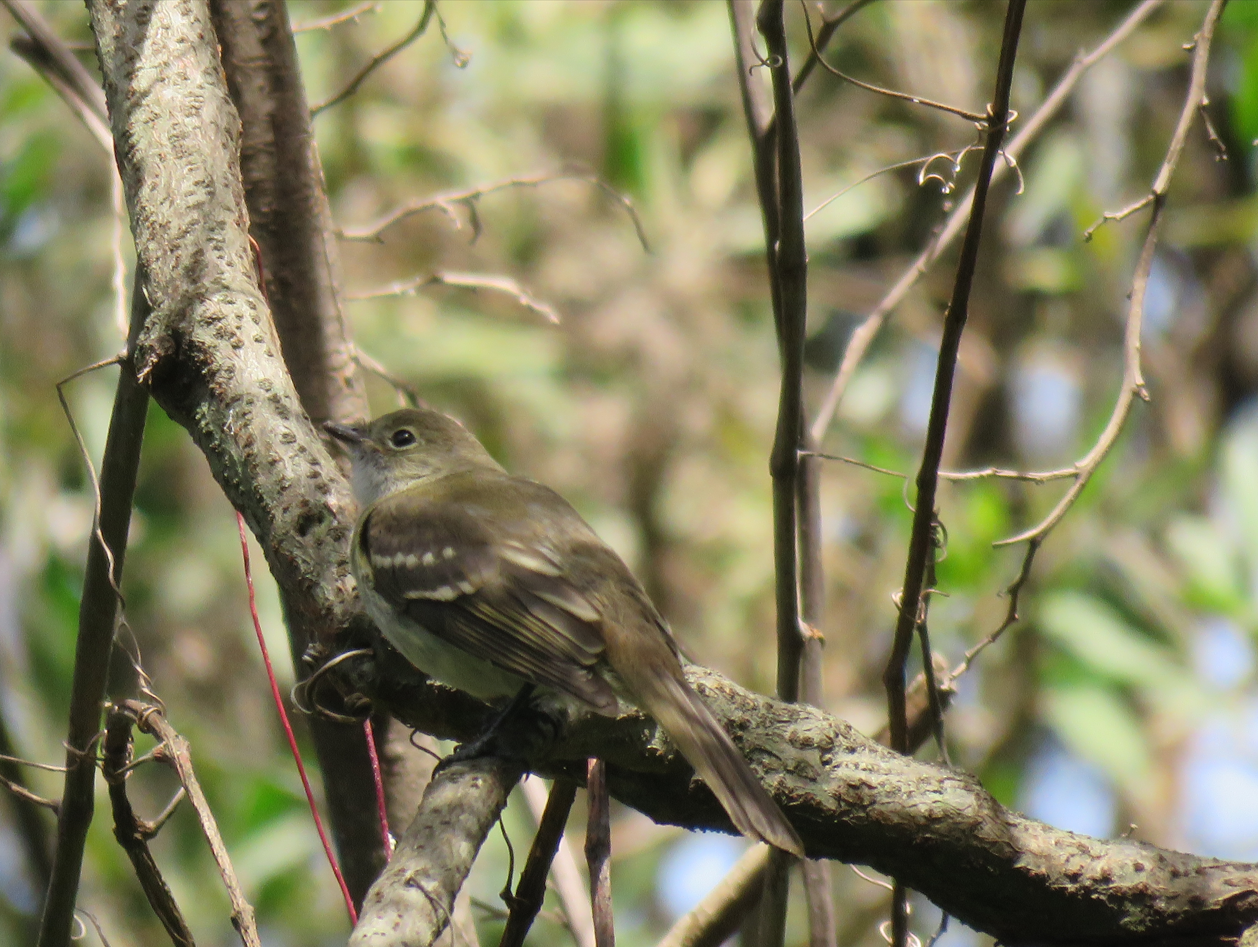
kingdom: Animalia
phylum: Chordata
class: Aves
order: Passeriformes
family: Tyrannidae
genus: Elaenia
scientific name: Elaenia parvirostris
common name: Small-billed elaenia
